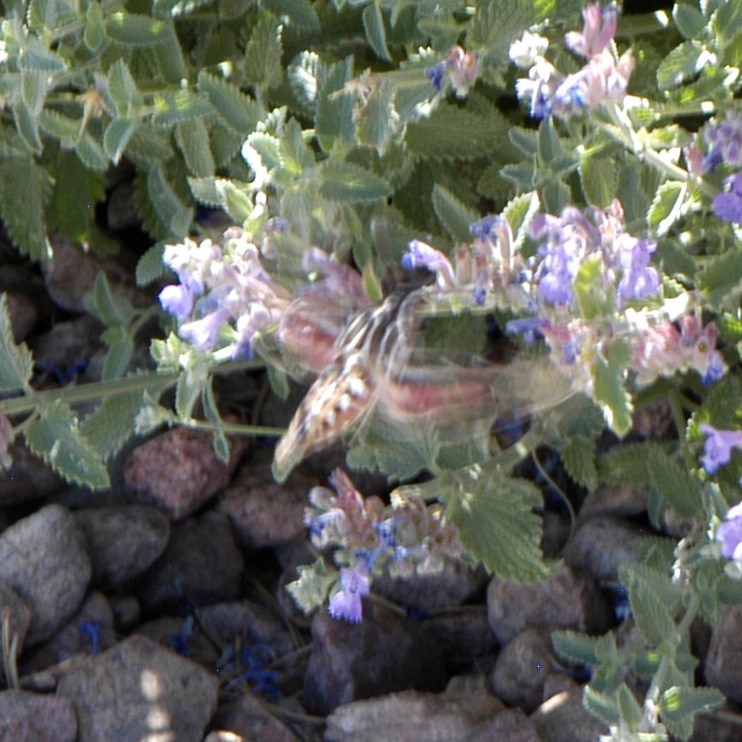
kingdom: Animalia
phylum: Arthropoda
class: Insecta
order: Lepidoptera
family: Sphingidae
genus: Hyles
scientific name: Hyles lineata
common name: White-lined sphinx
